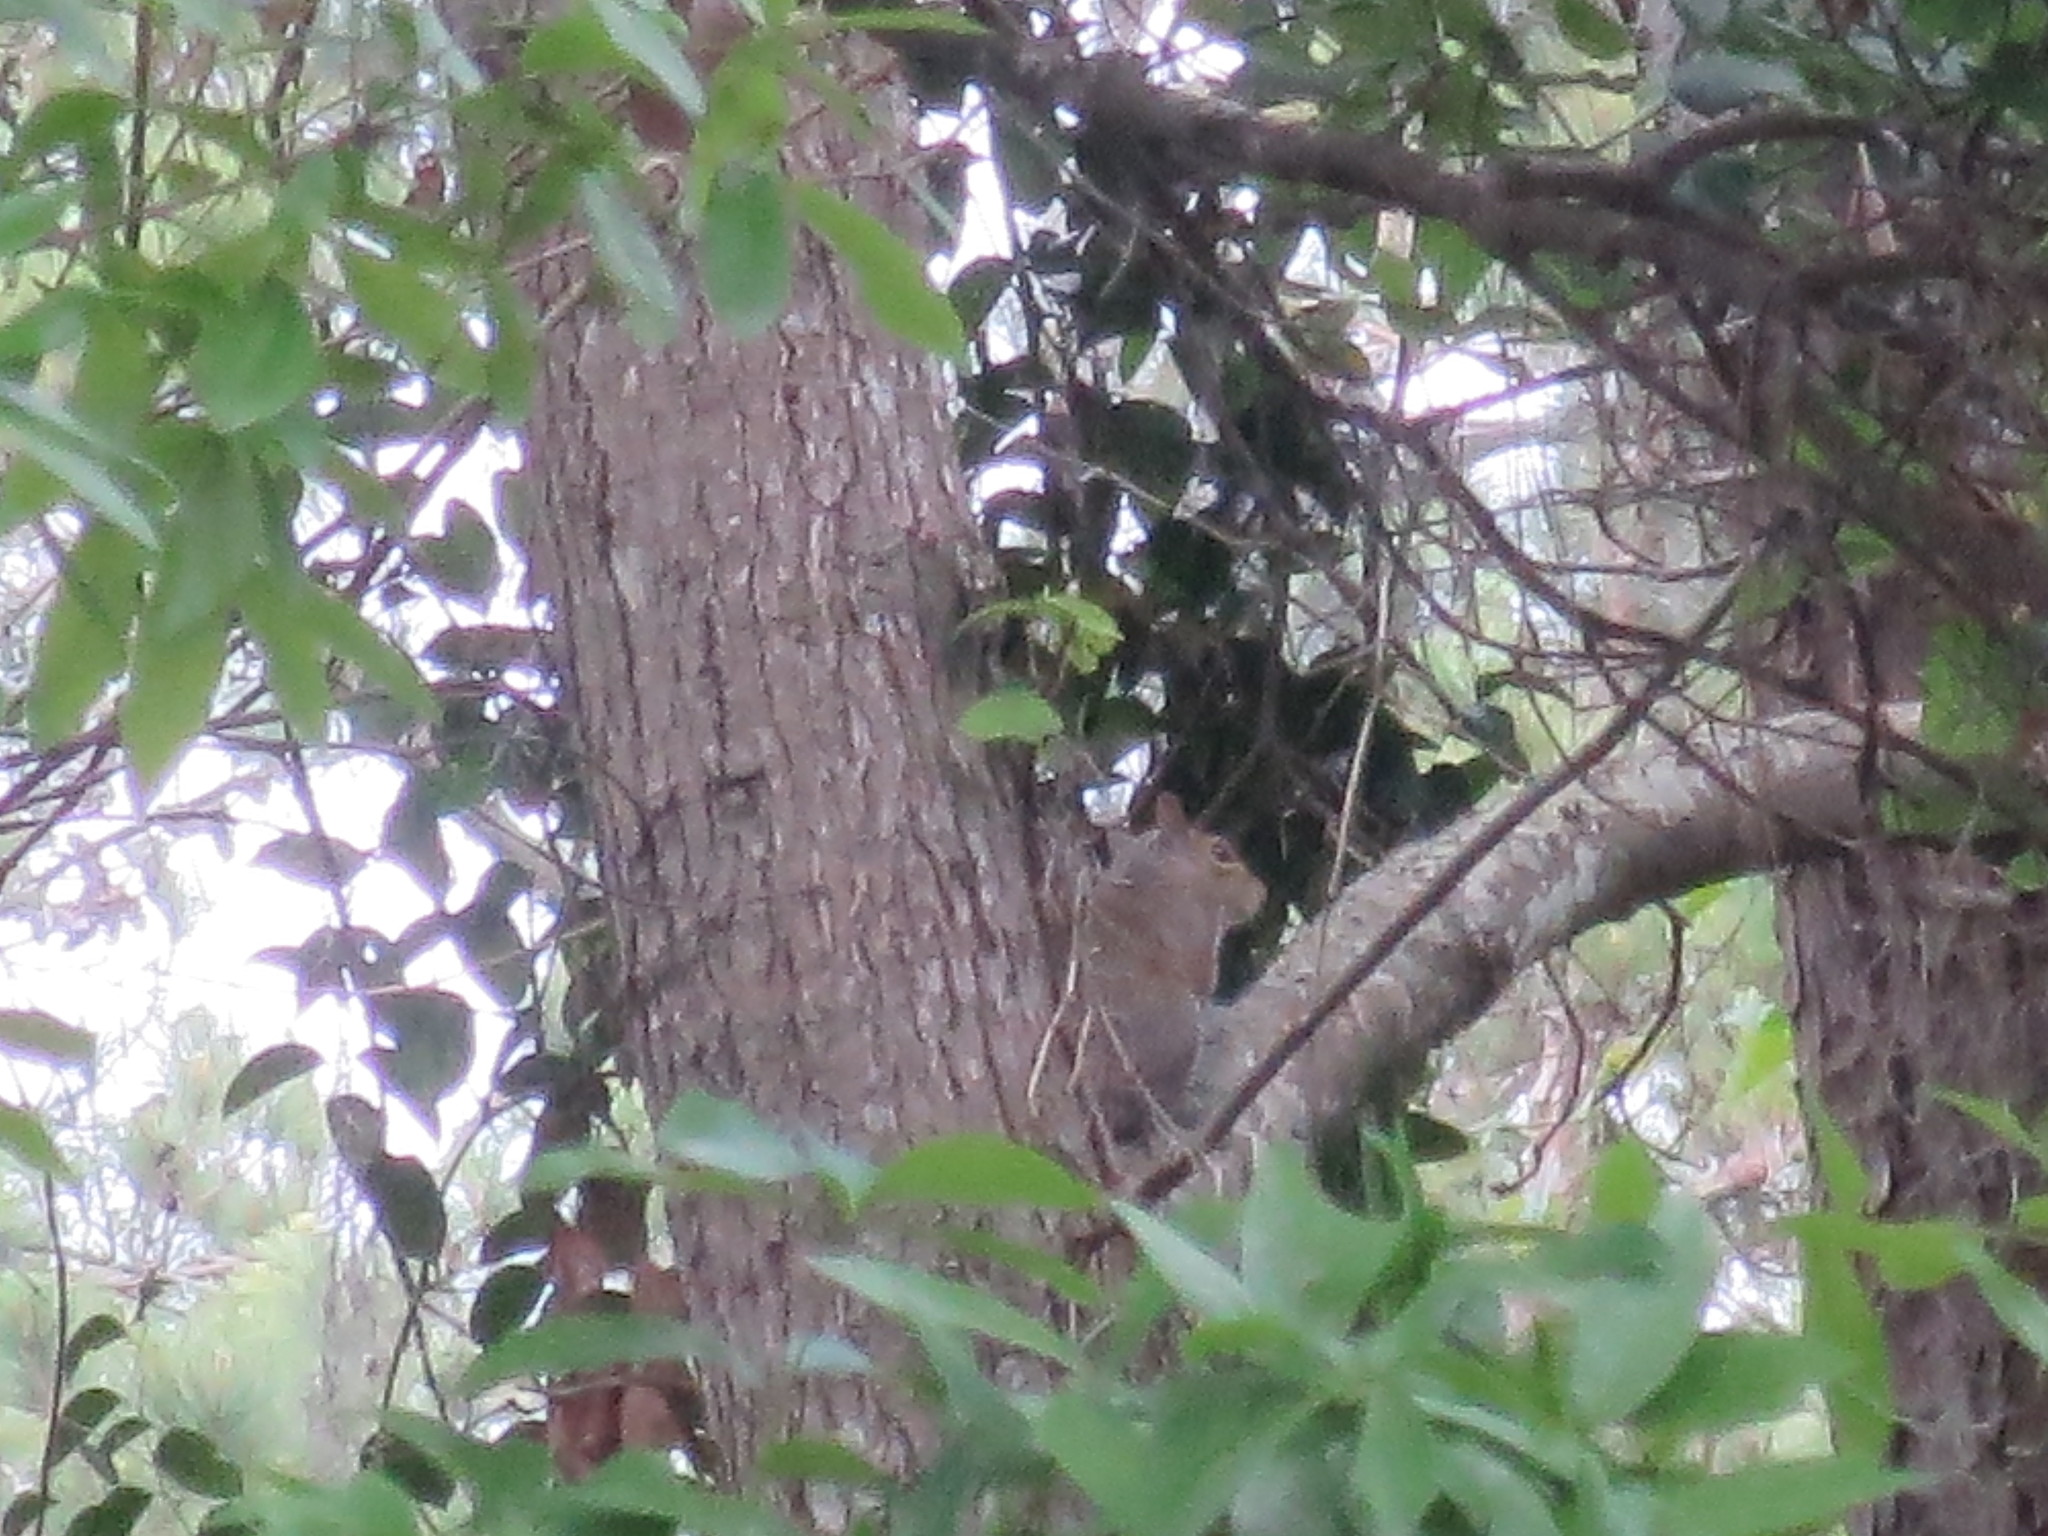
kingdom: Animalia
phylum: Chordata
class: Mammalia
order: Rodentia
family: Sciuridae
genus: Sciurus
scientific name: Sciurus carolinensis
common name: Eastern gray squirrel
